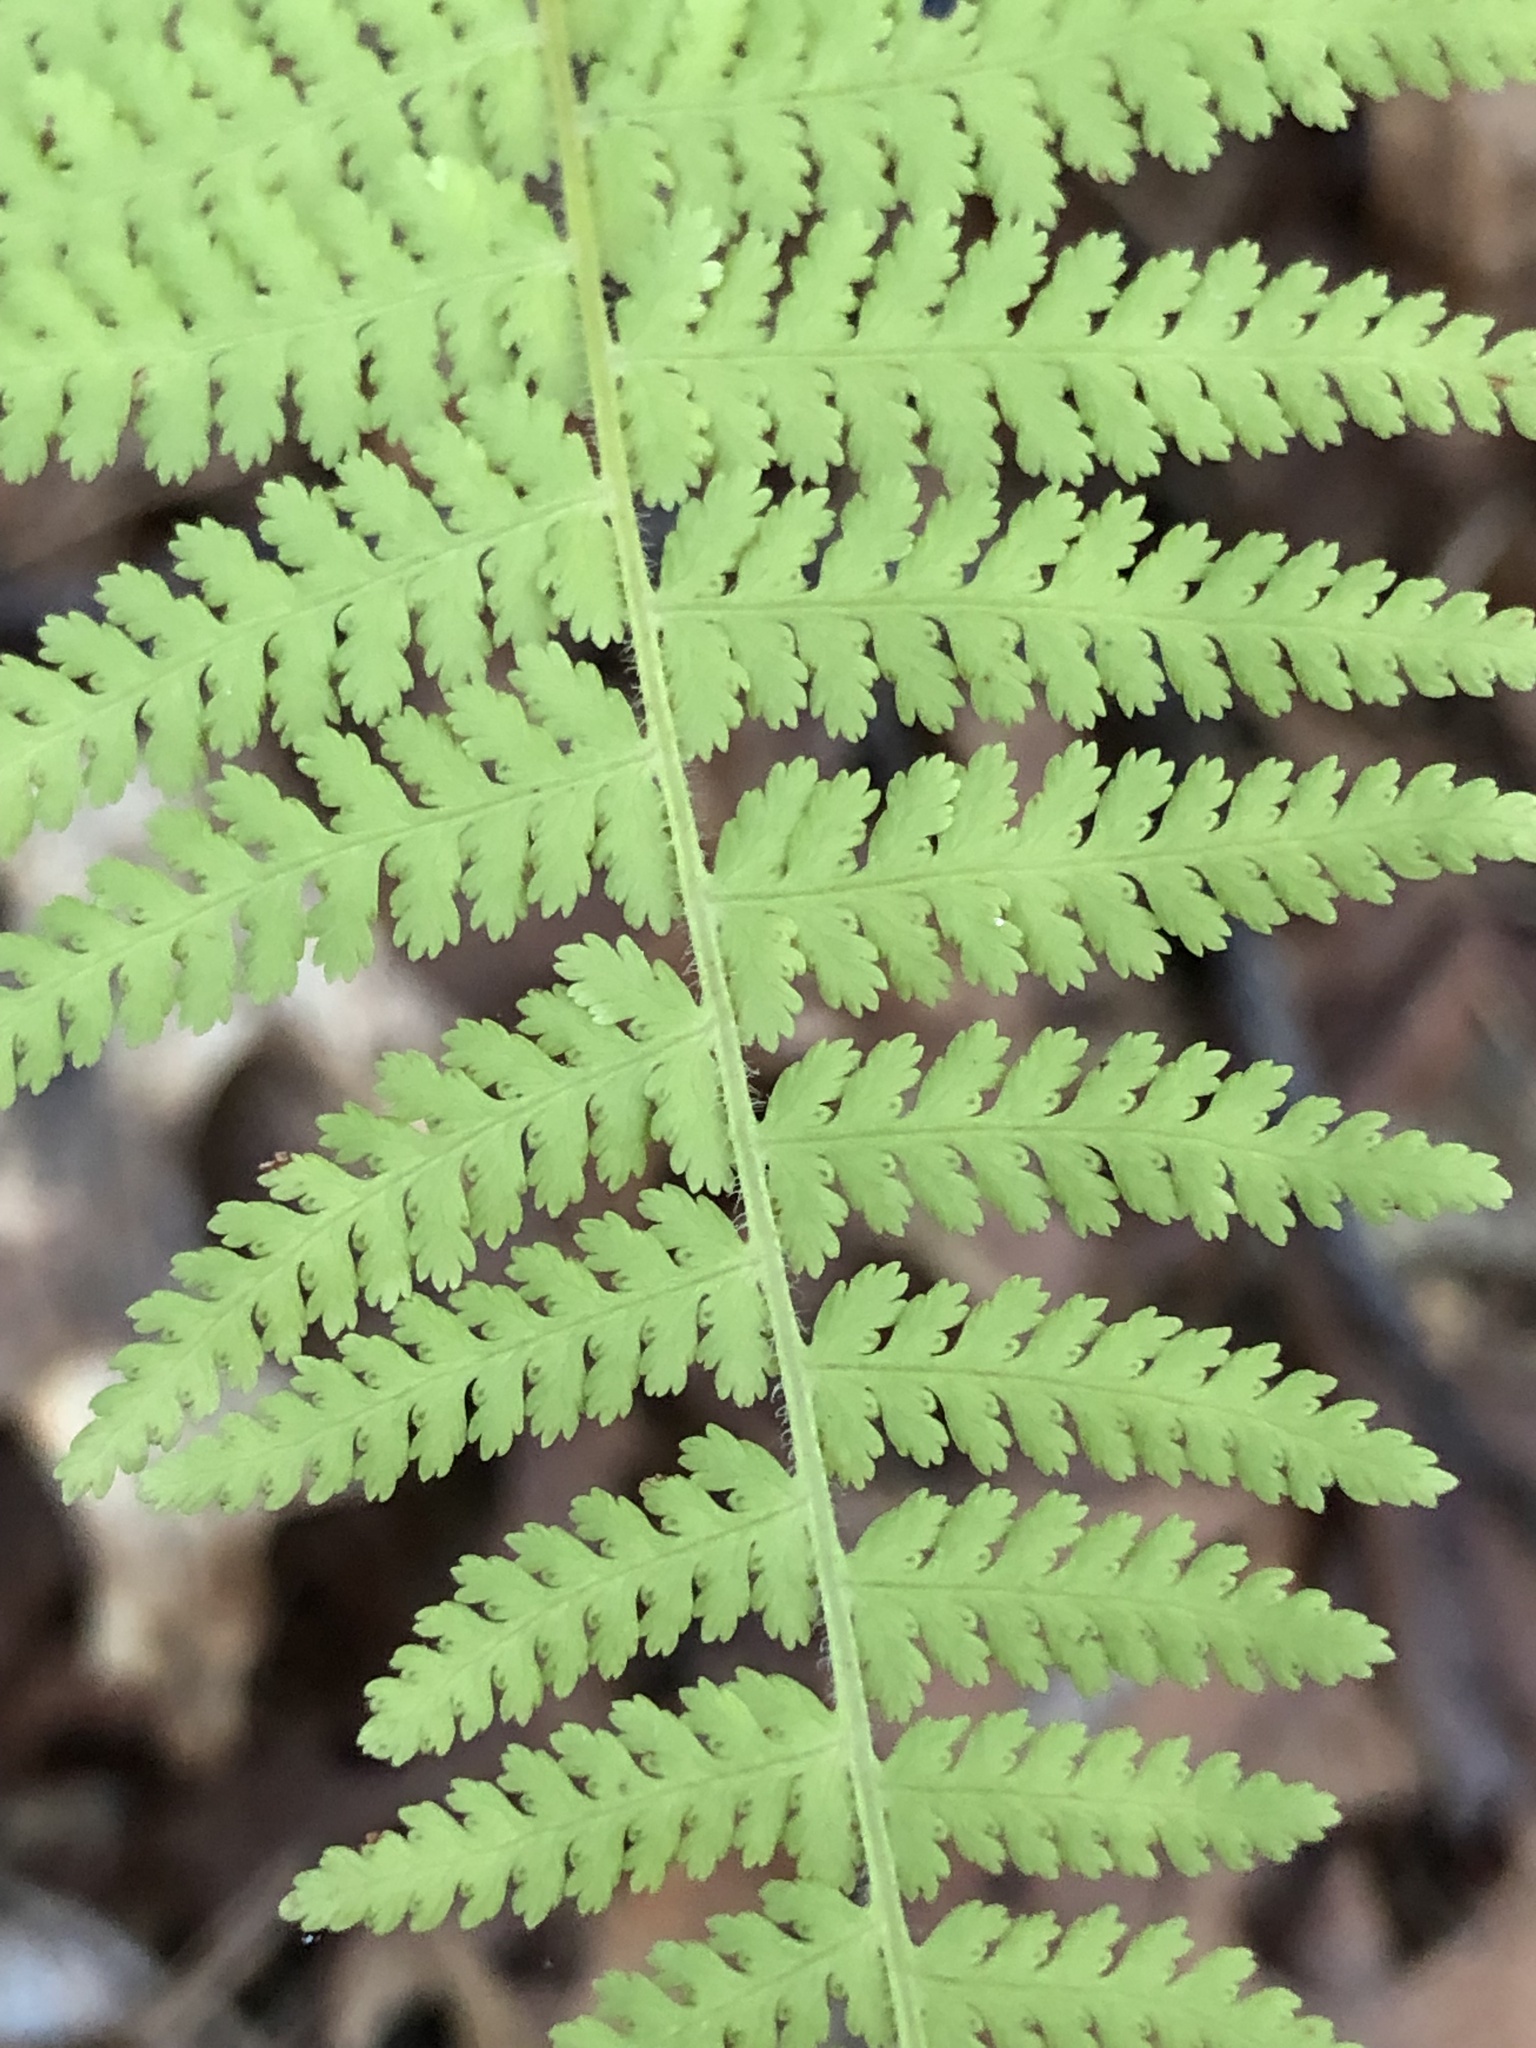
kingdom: Plantae
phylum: Tracheophyta
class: Polypodiopsida
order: Polypodiales
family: Dennstaedtiaceae
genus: Sitobolium
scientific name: Sitobolium punctilobum
